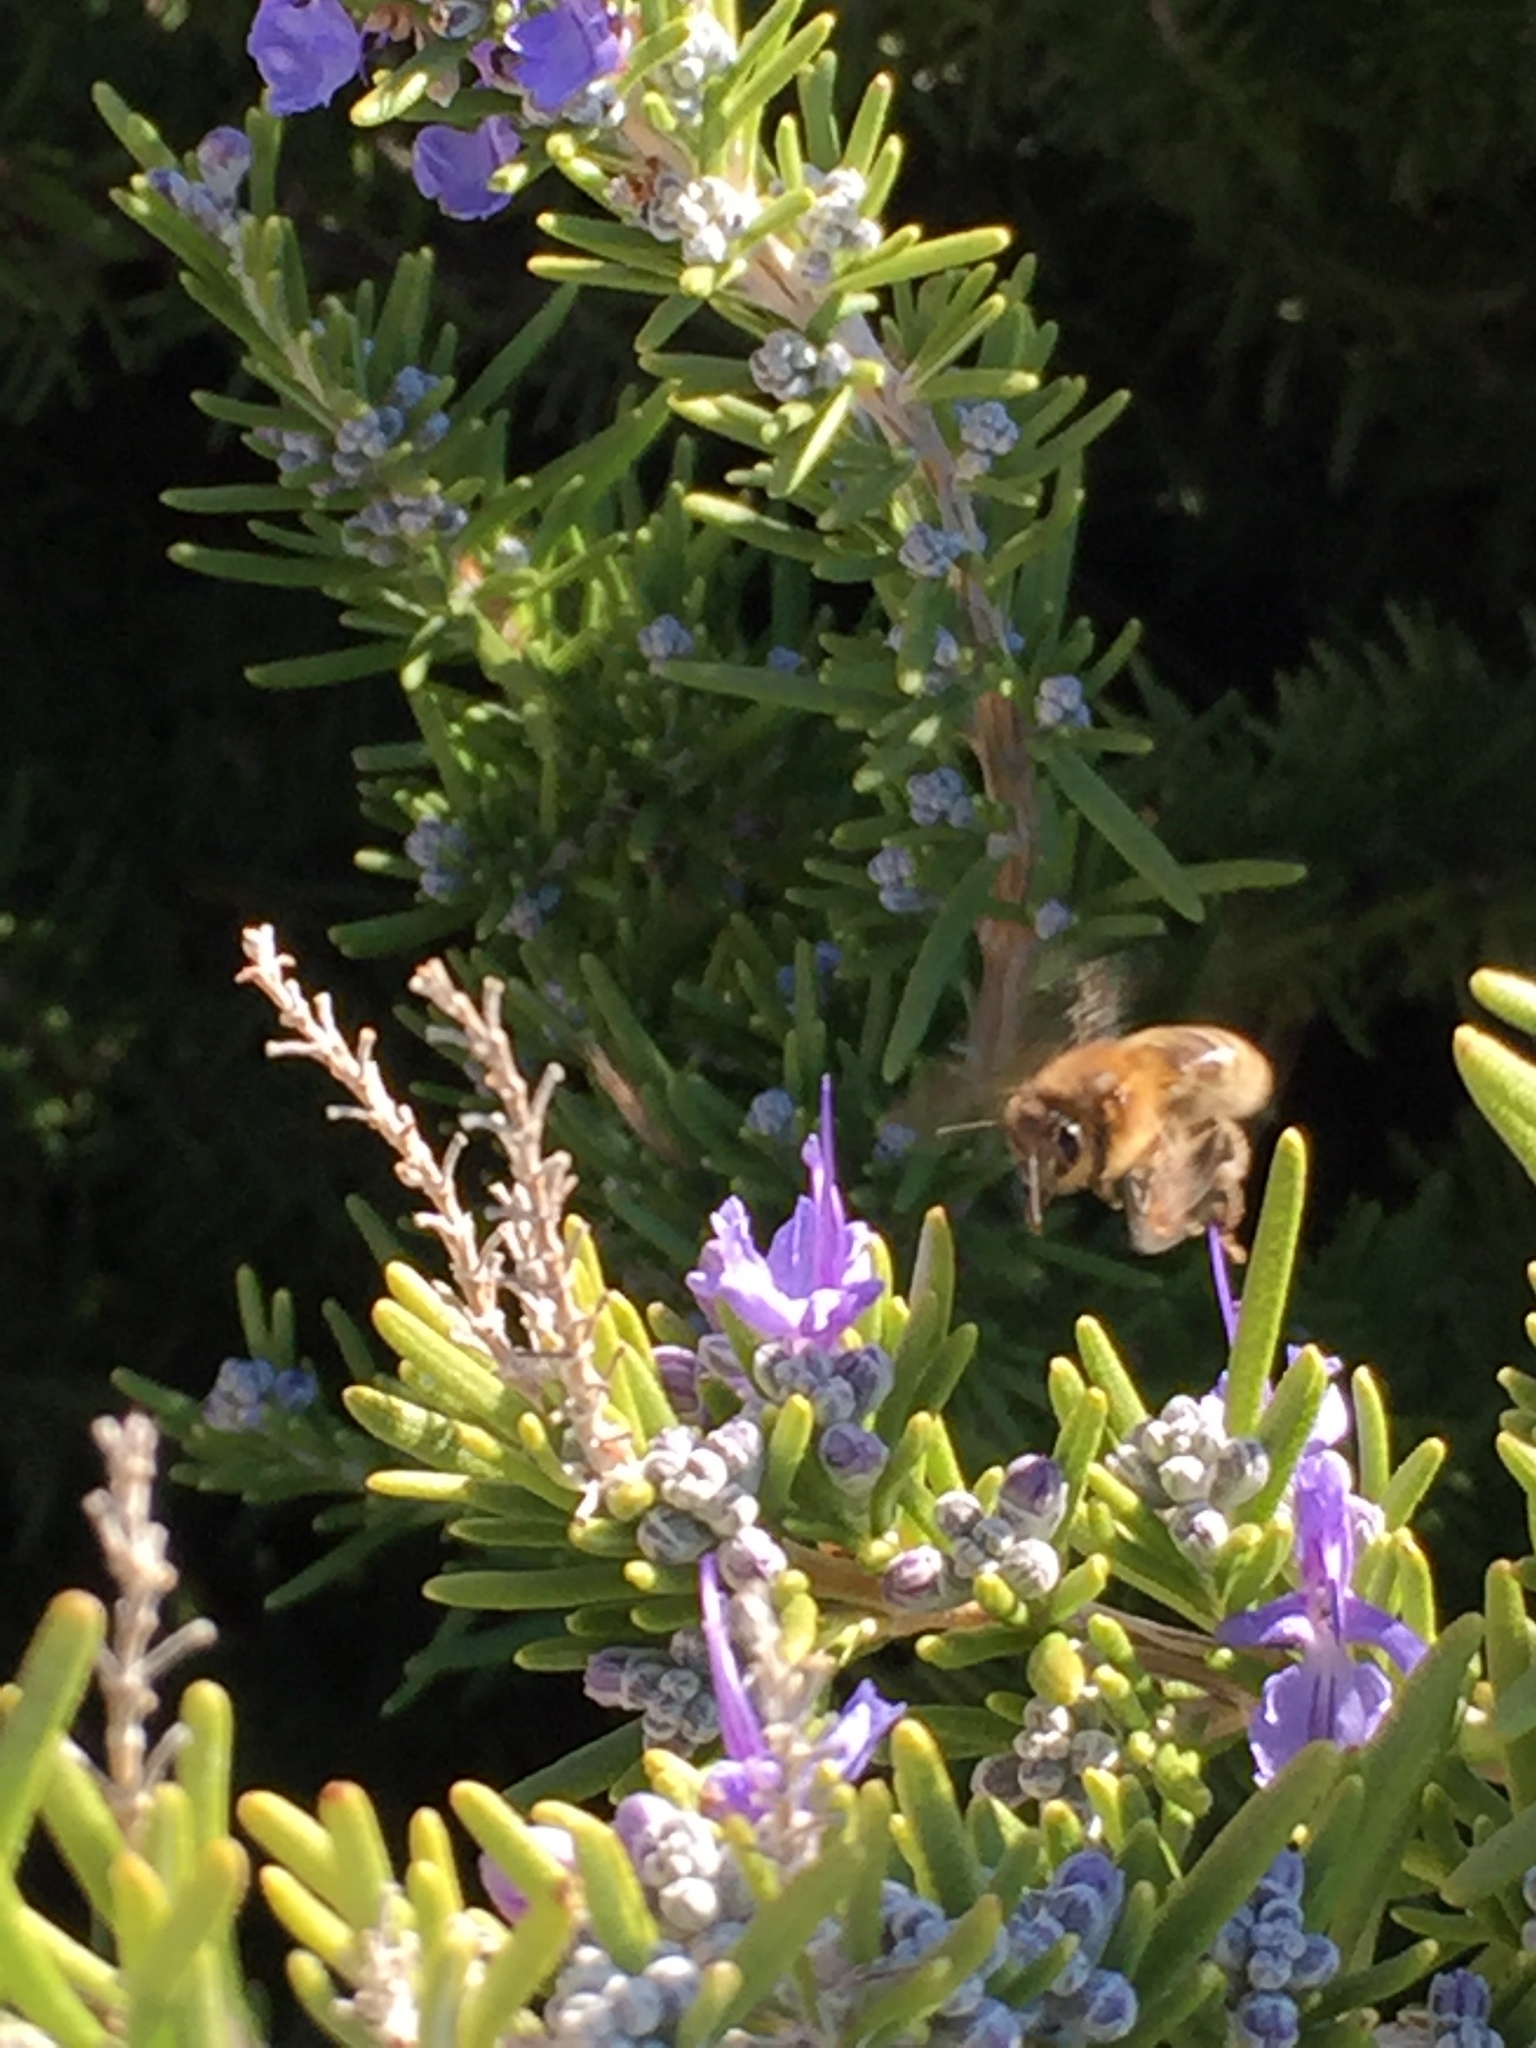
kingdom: Animalia
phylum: Arthropoda
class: Insecta
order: Hymenoptera
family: Apidae
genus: Apis
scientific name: Apis mellifera
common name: Honey bee
